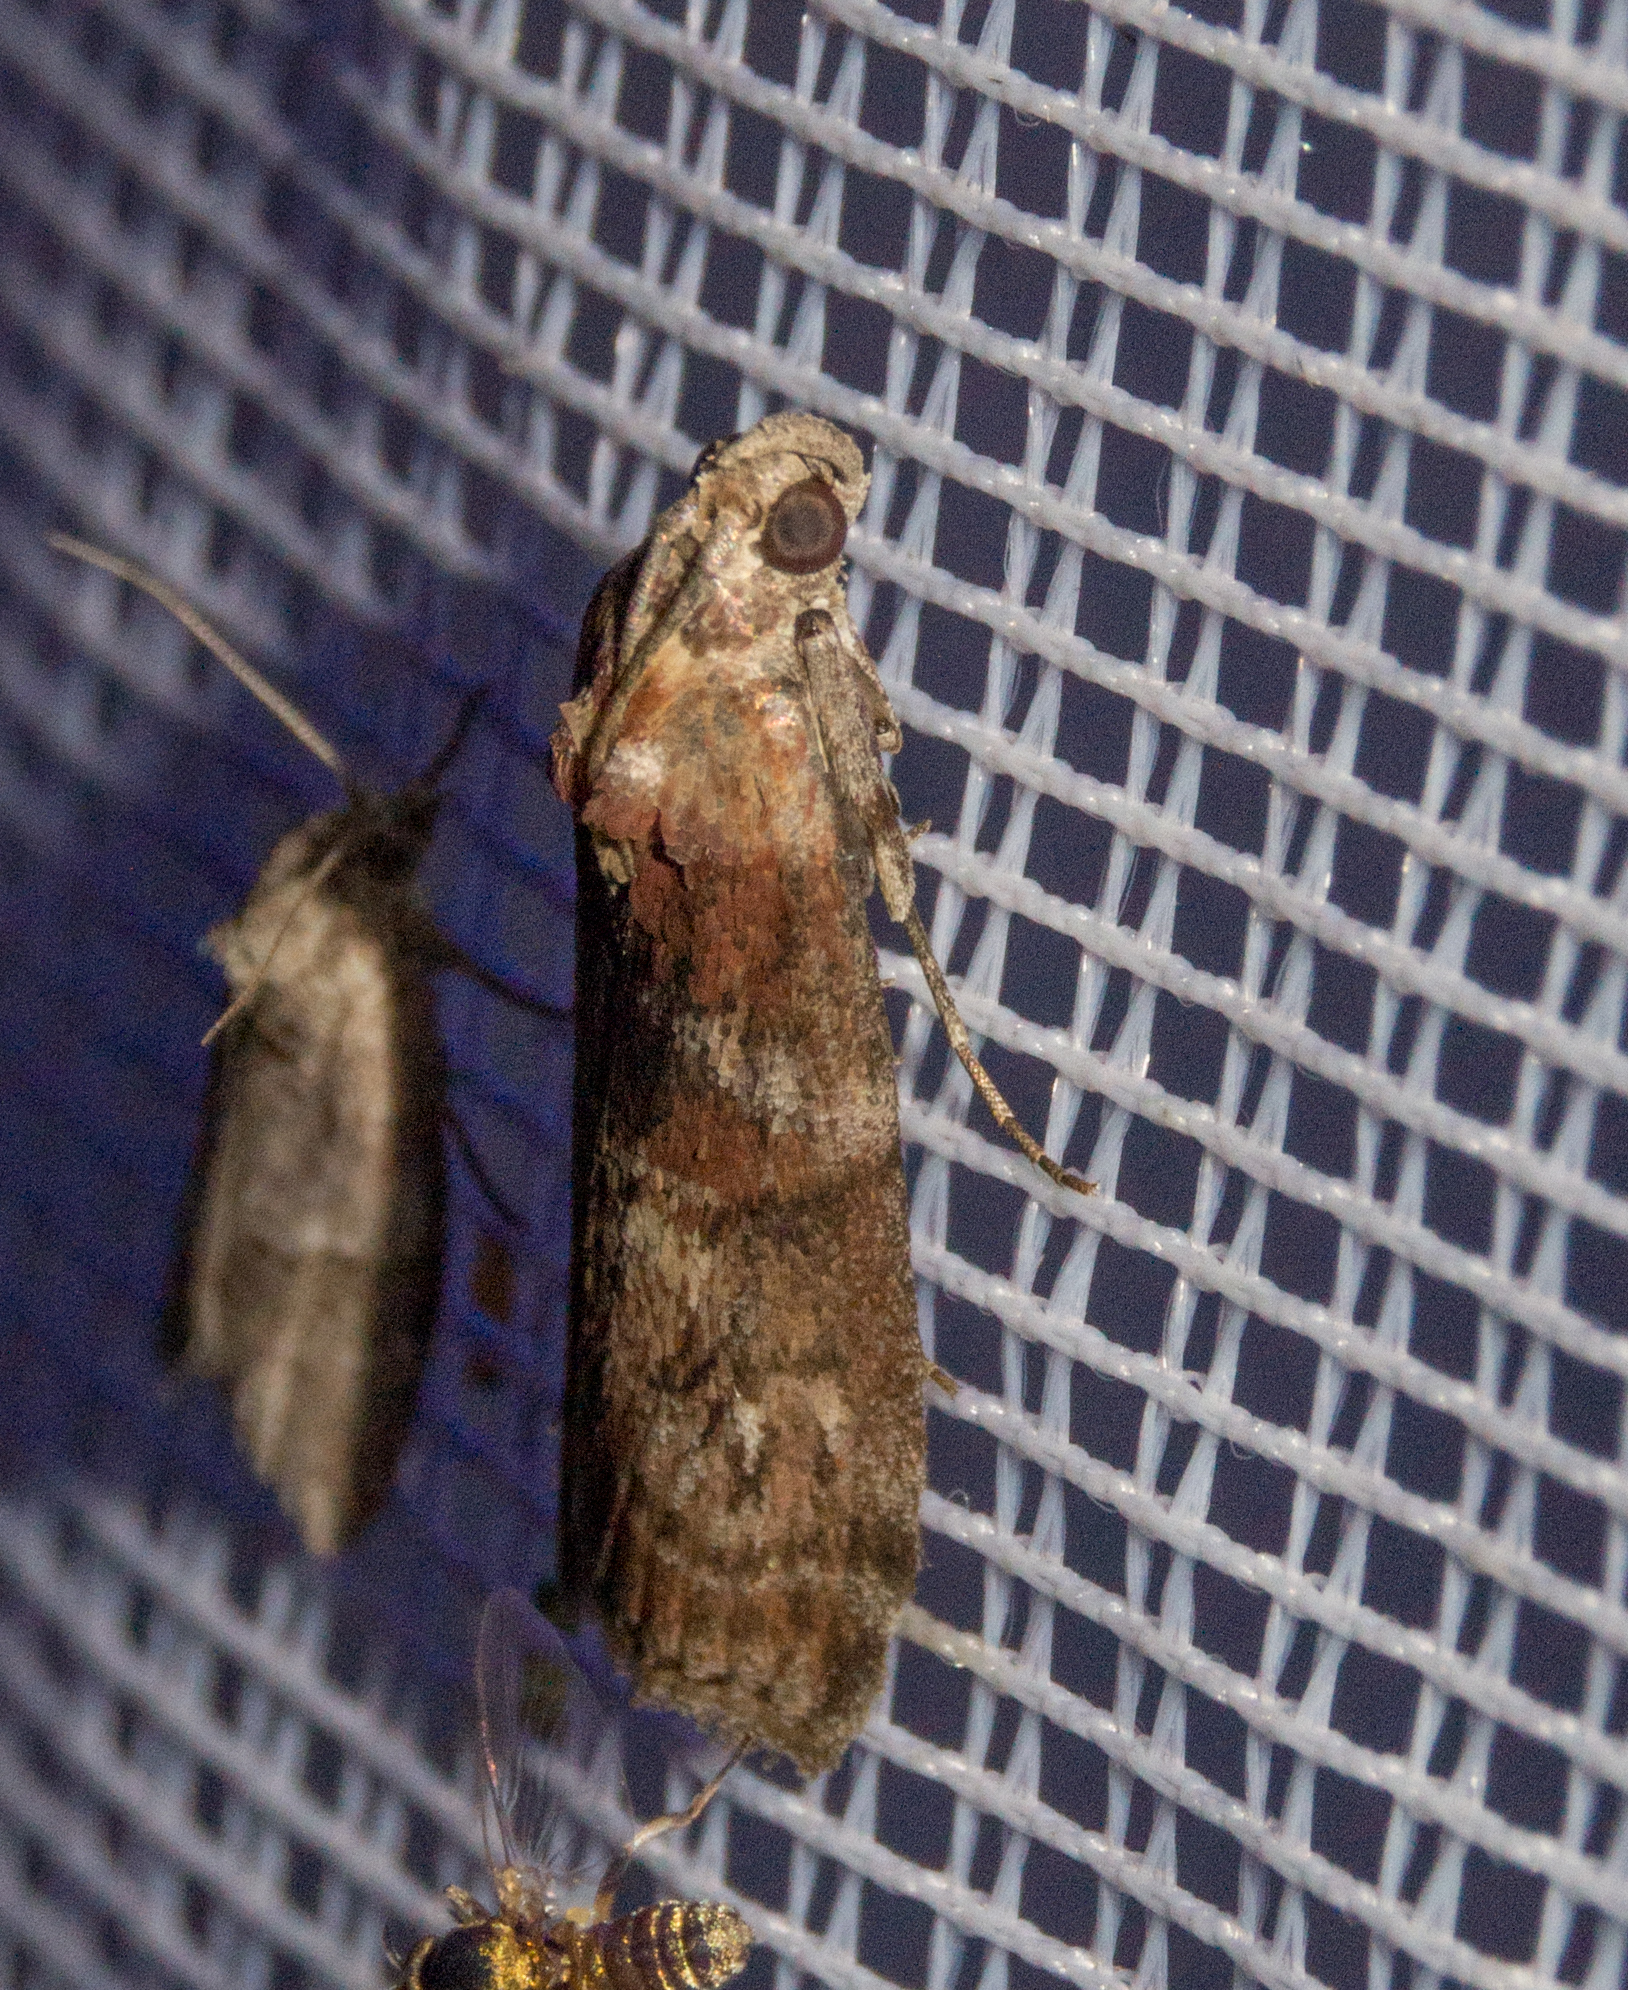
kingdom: Animalia
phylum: Arthropoda
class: Insecta
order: Lepidoptera
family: Pyralidae
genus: Phycita
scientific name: Phycita roborella
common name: Dotted oak knot-horn
